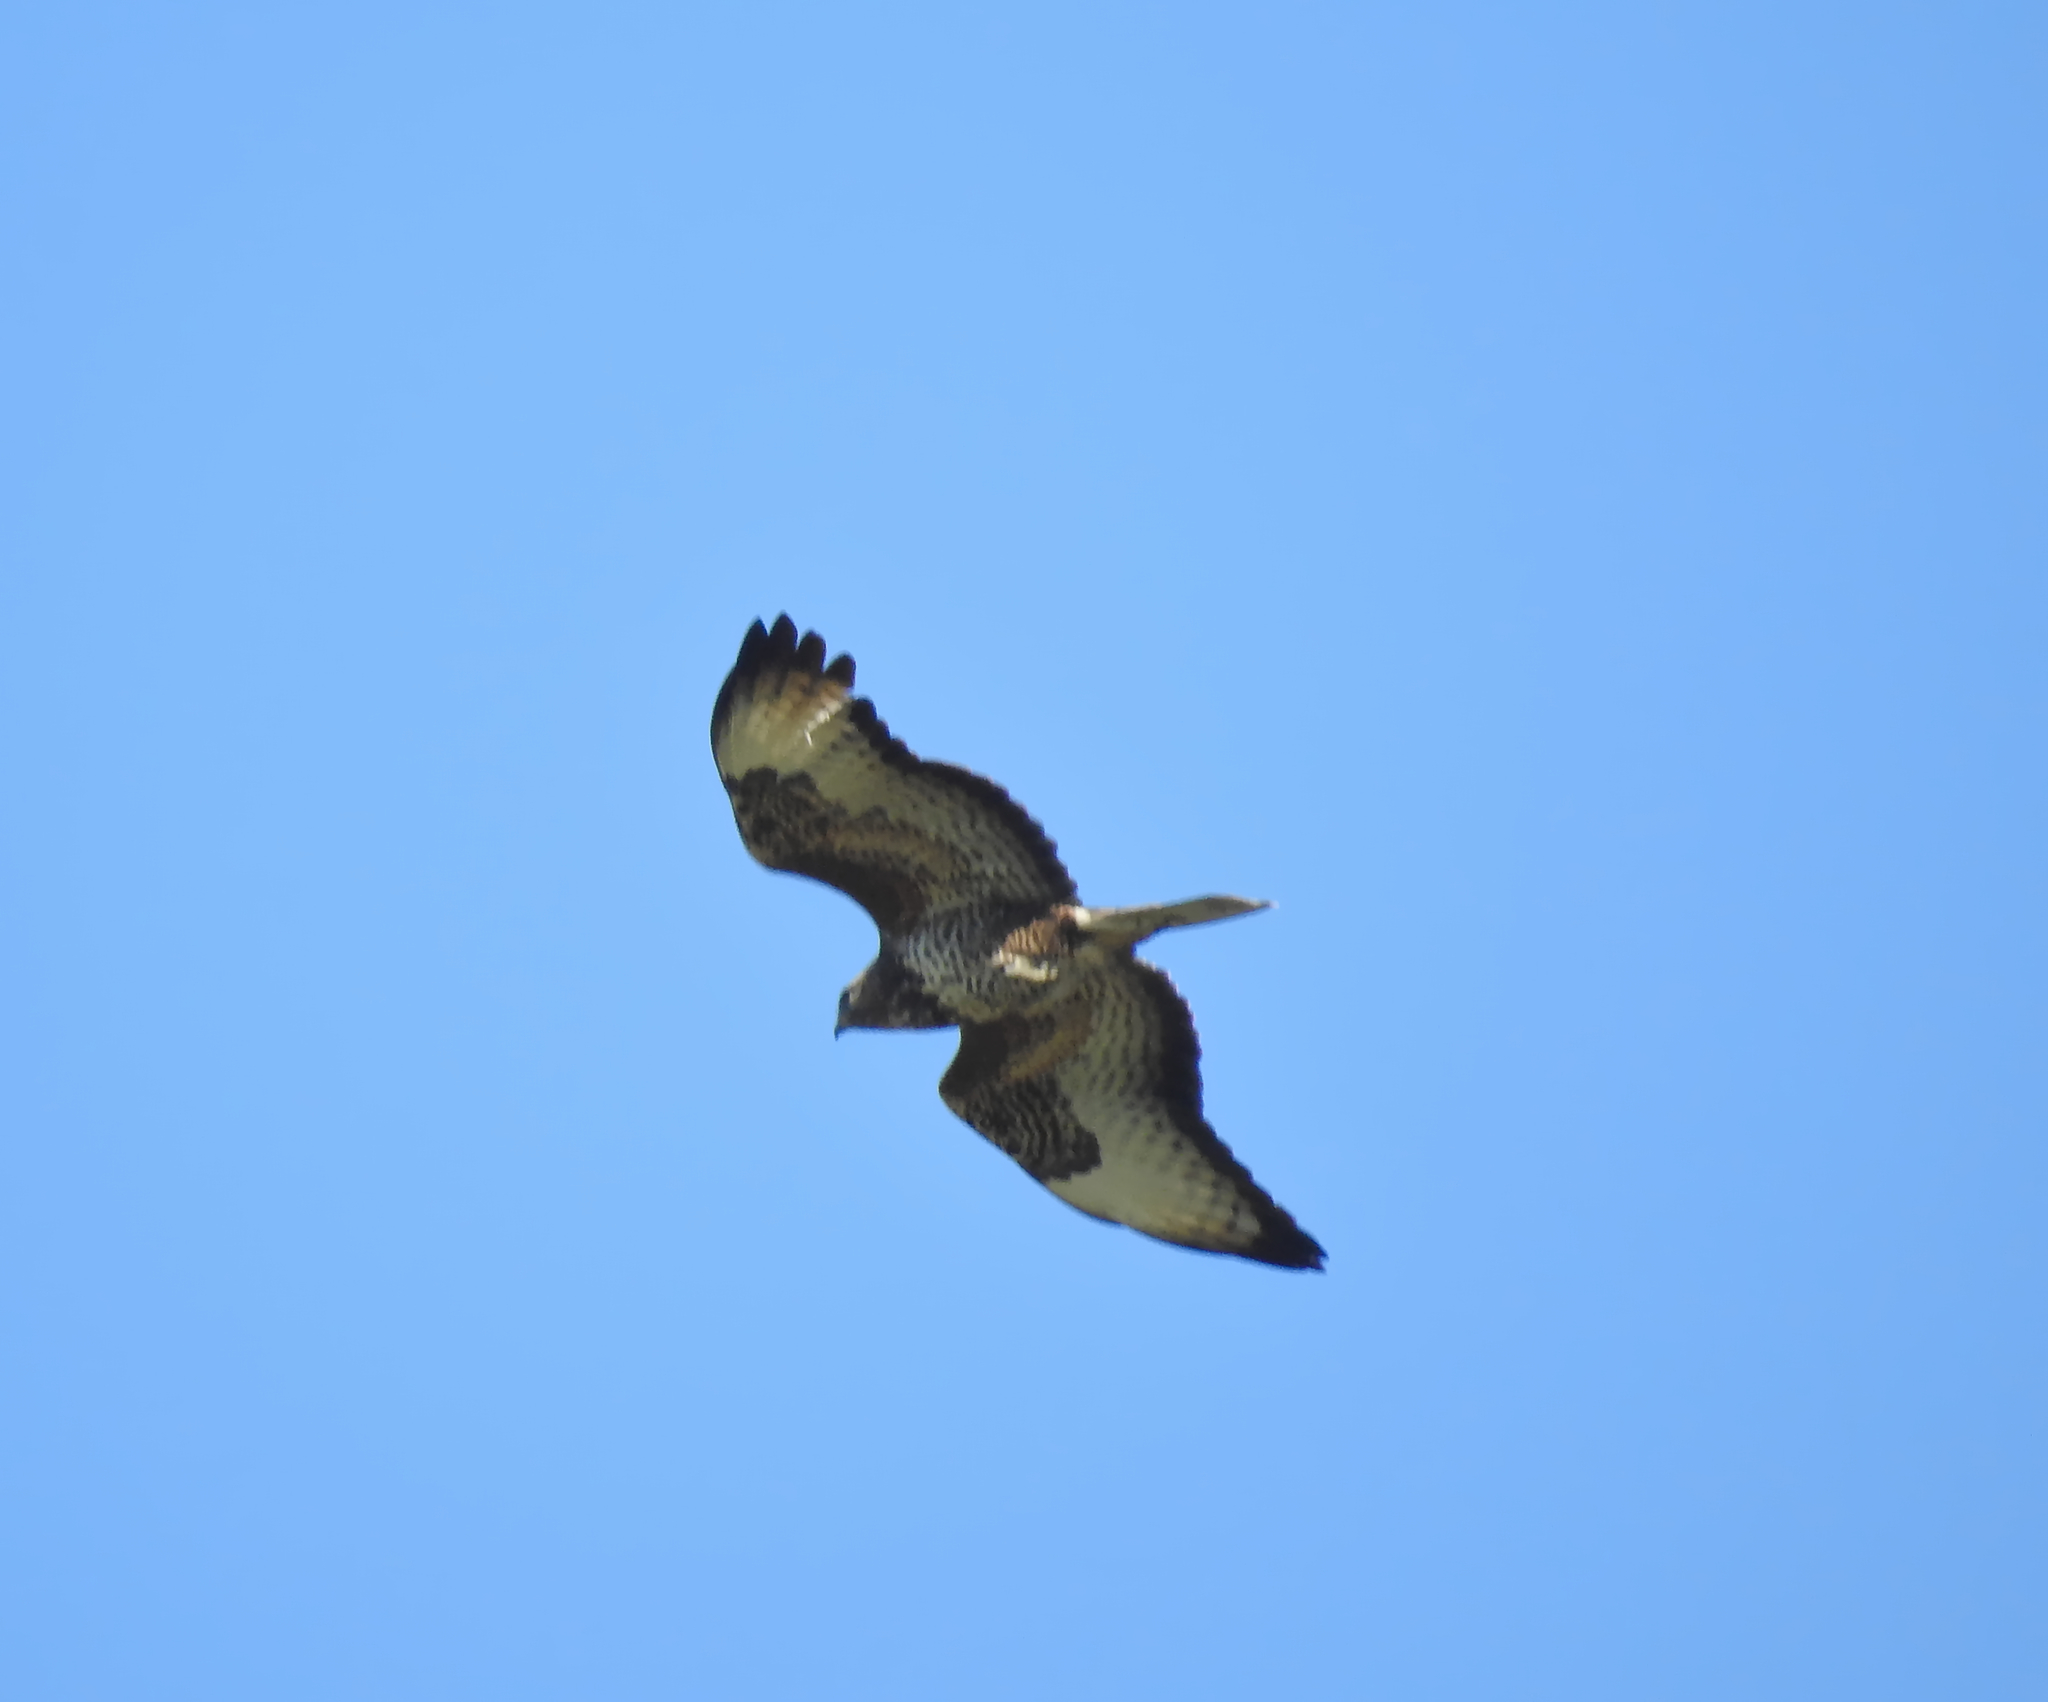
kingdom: Animalia
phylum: Chordata
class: Aves
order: Accipitriformes
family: Accipitridae
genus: Buteo
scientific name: Buteo buteo
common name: Common buzzard
